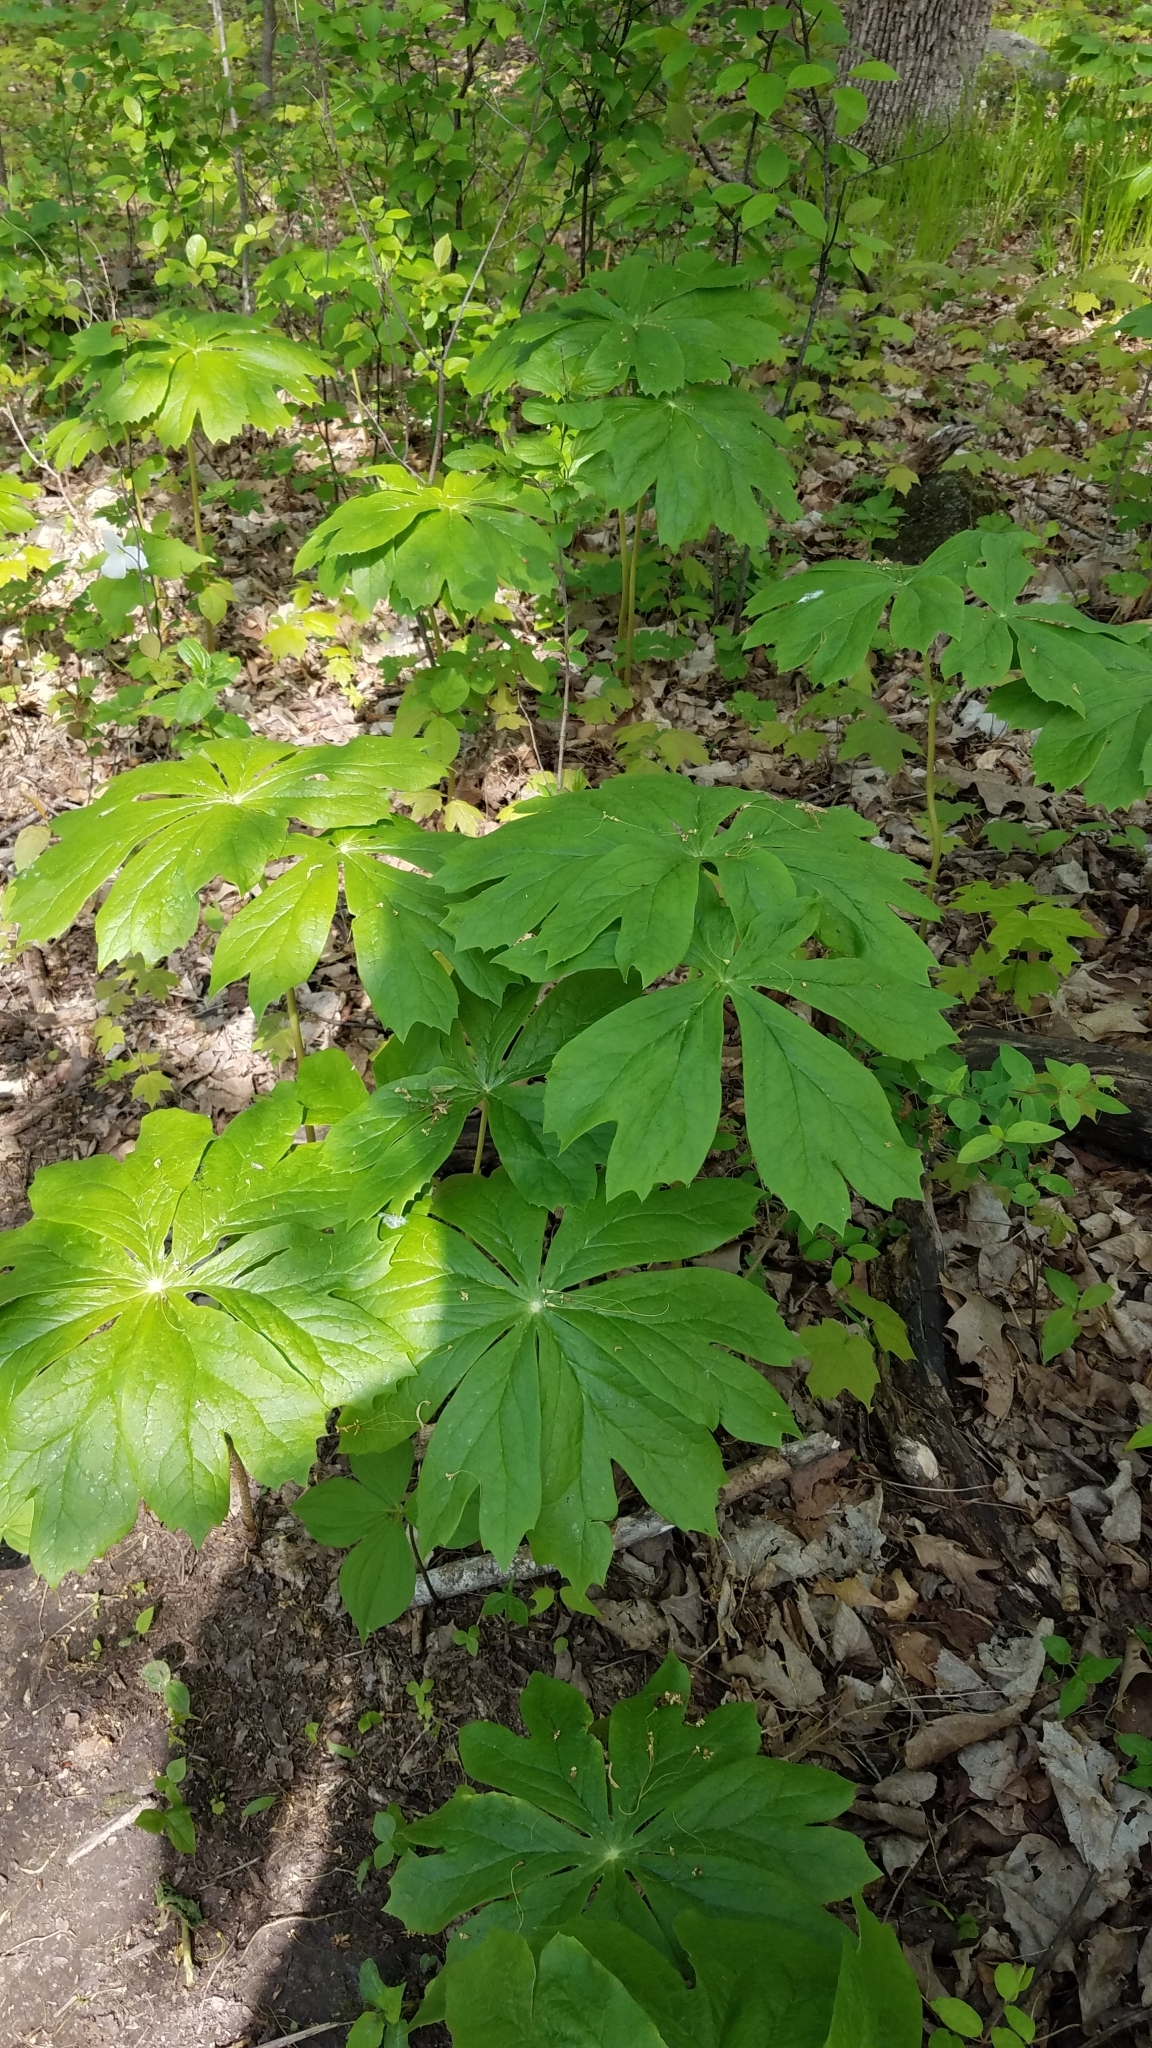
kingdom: Plantae
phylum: Tracheophyta
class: Magnoliopsida
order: Ranunculales
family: Berberidaceae
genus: Podophyllum
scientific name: Podophyllum peltatum
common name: Wild mandrake
